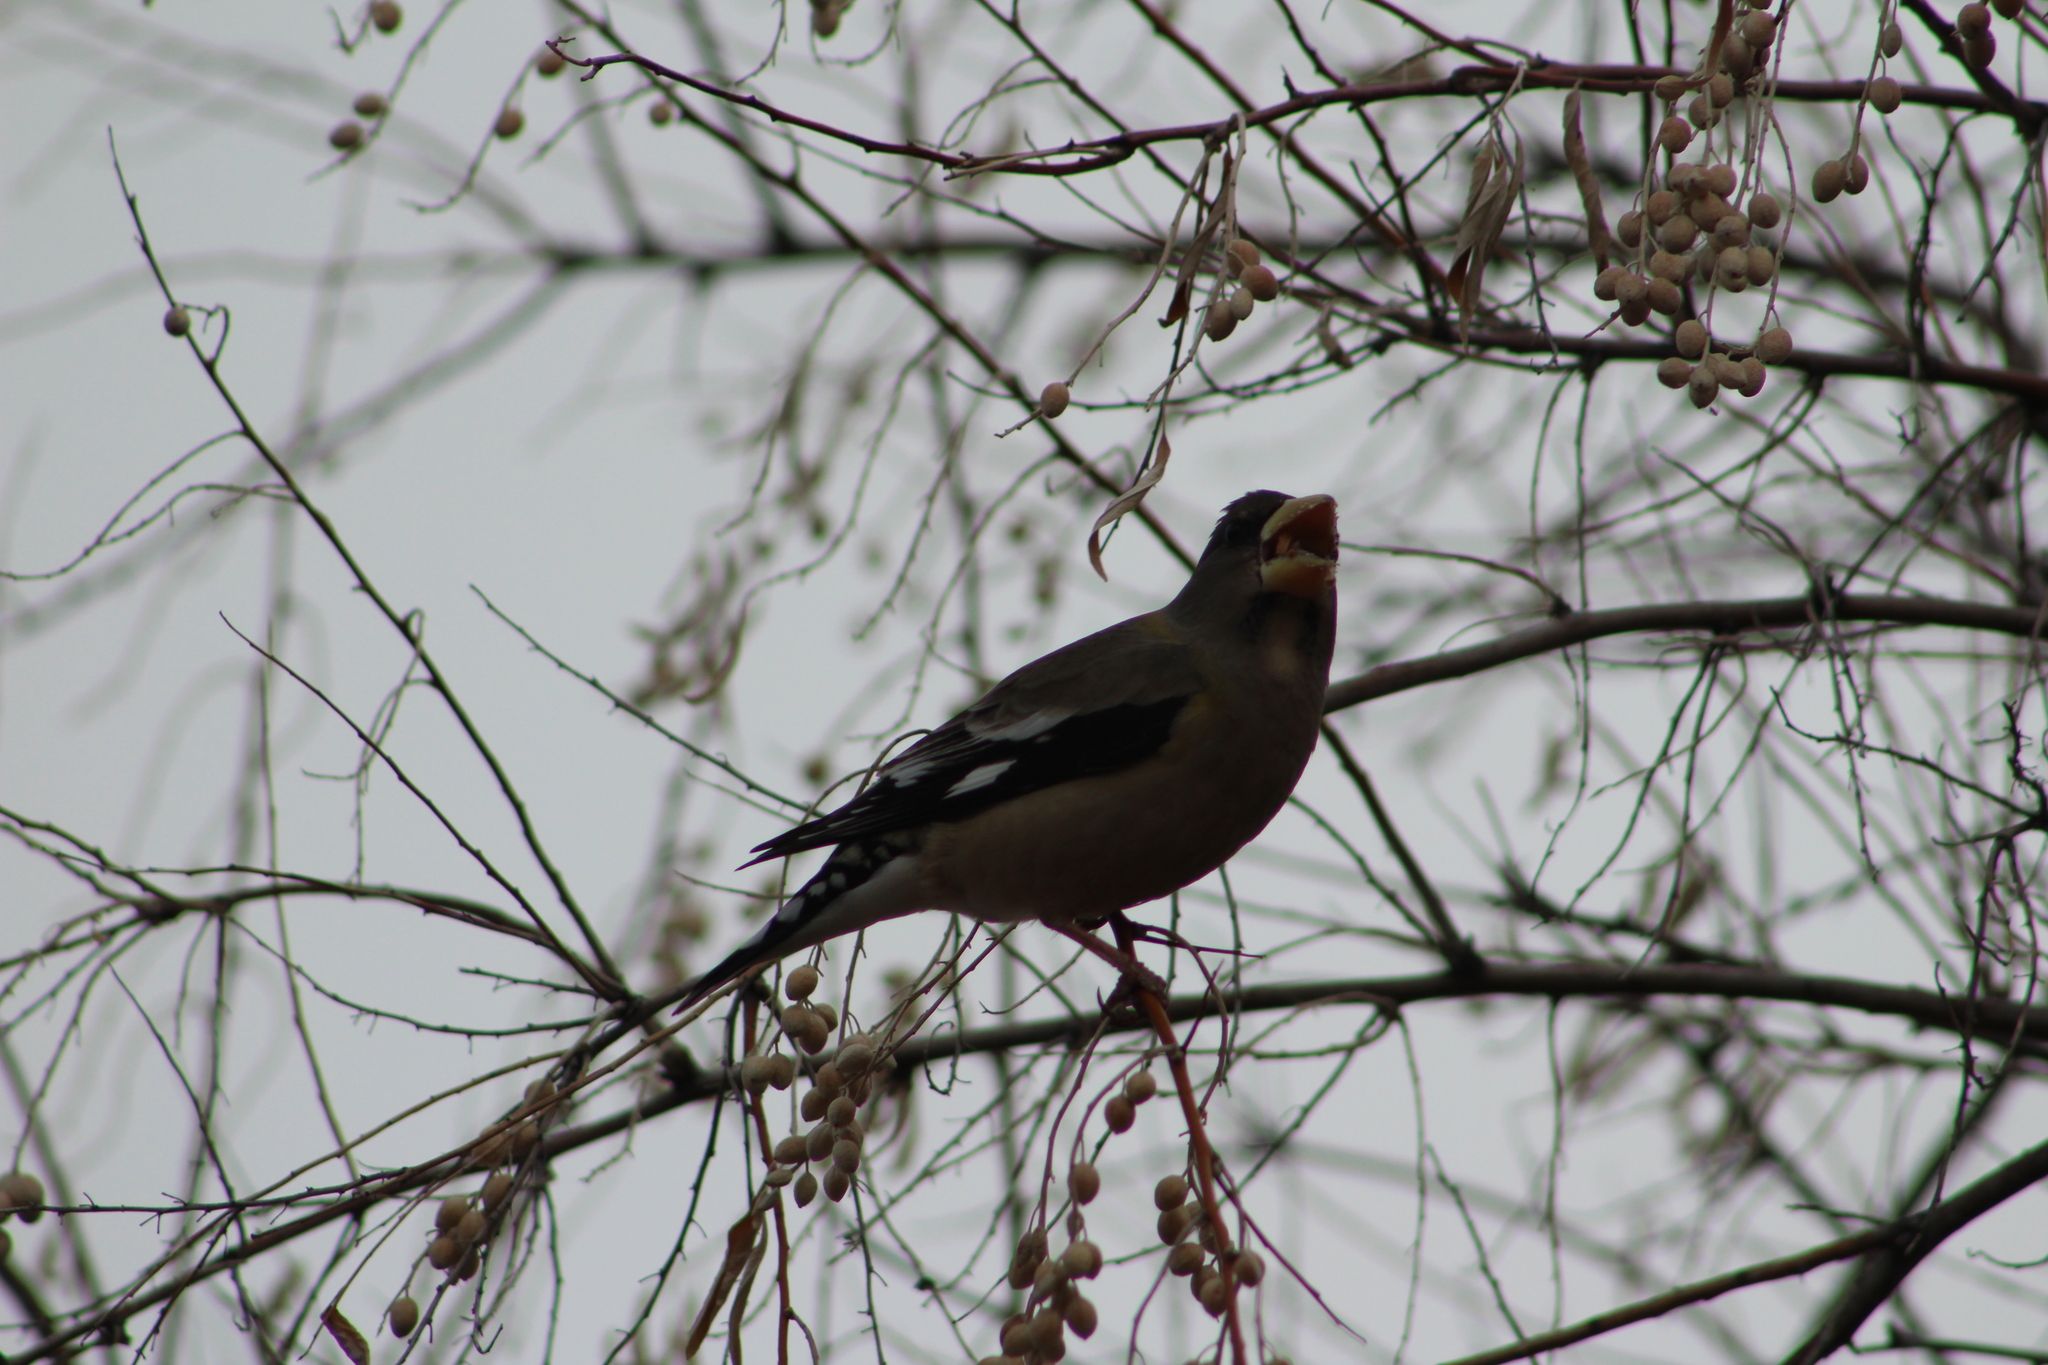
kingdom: Animalia
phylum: Chordata
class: Aves
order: Passeriformes
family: Fringillidae
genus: Hesperiphona
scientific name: Hesperiphona vespertina
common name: Evening grosbeak
